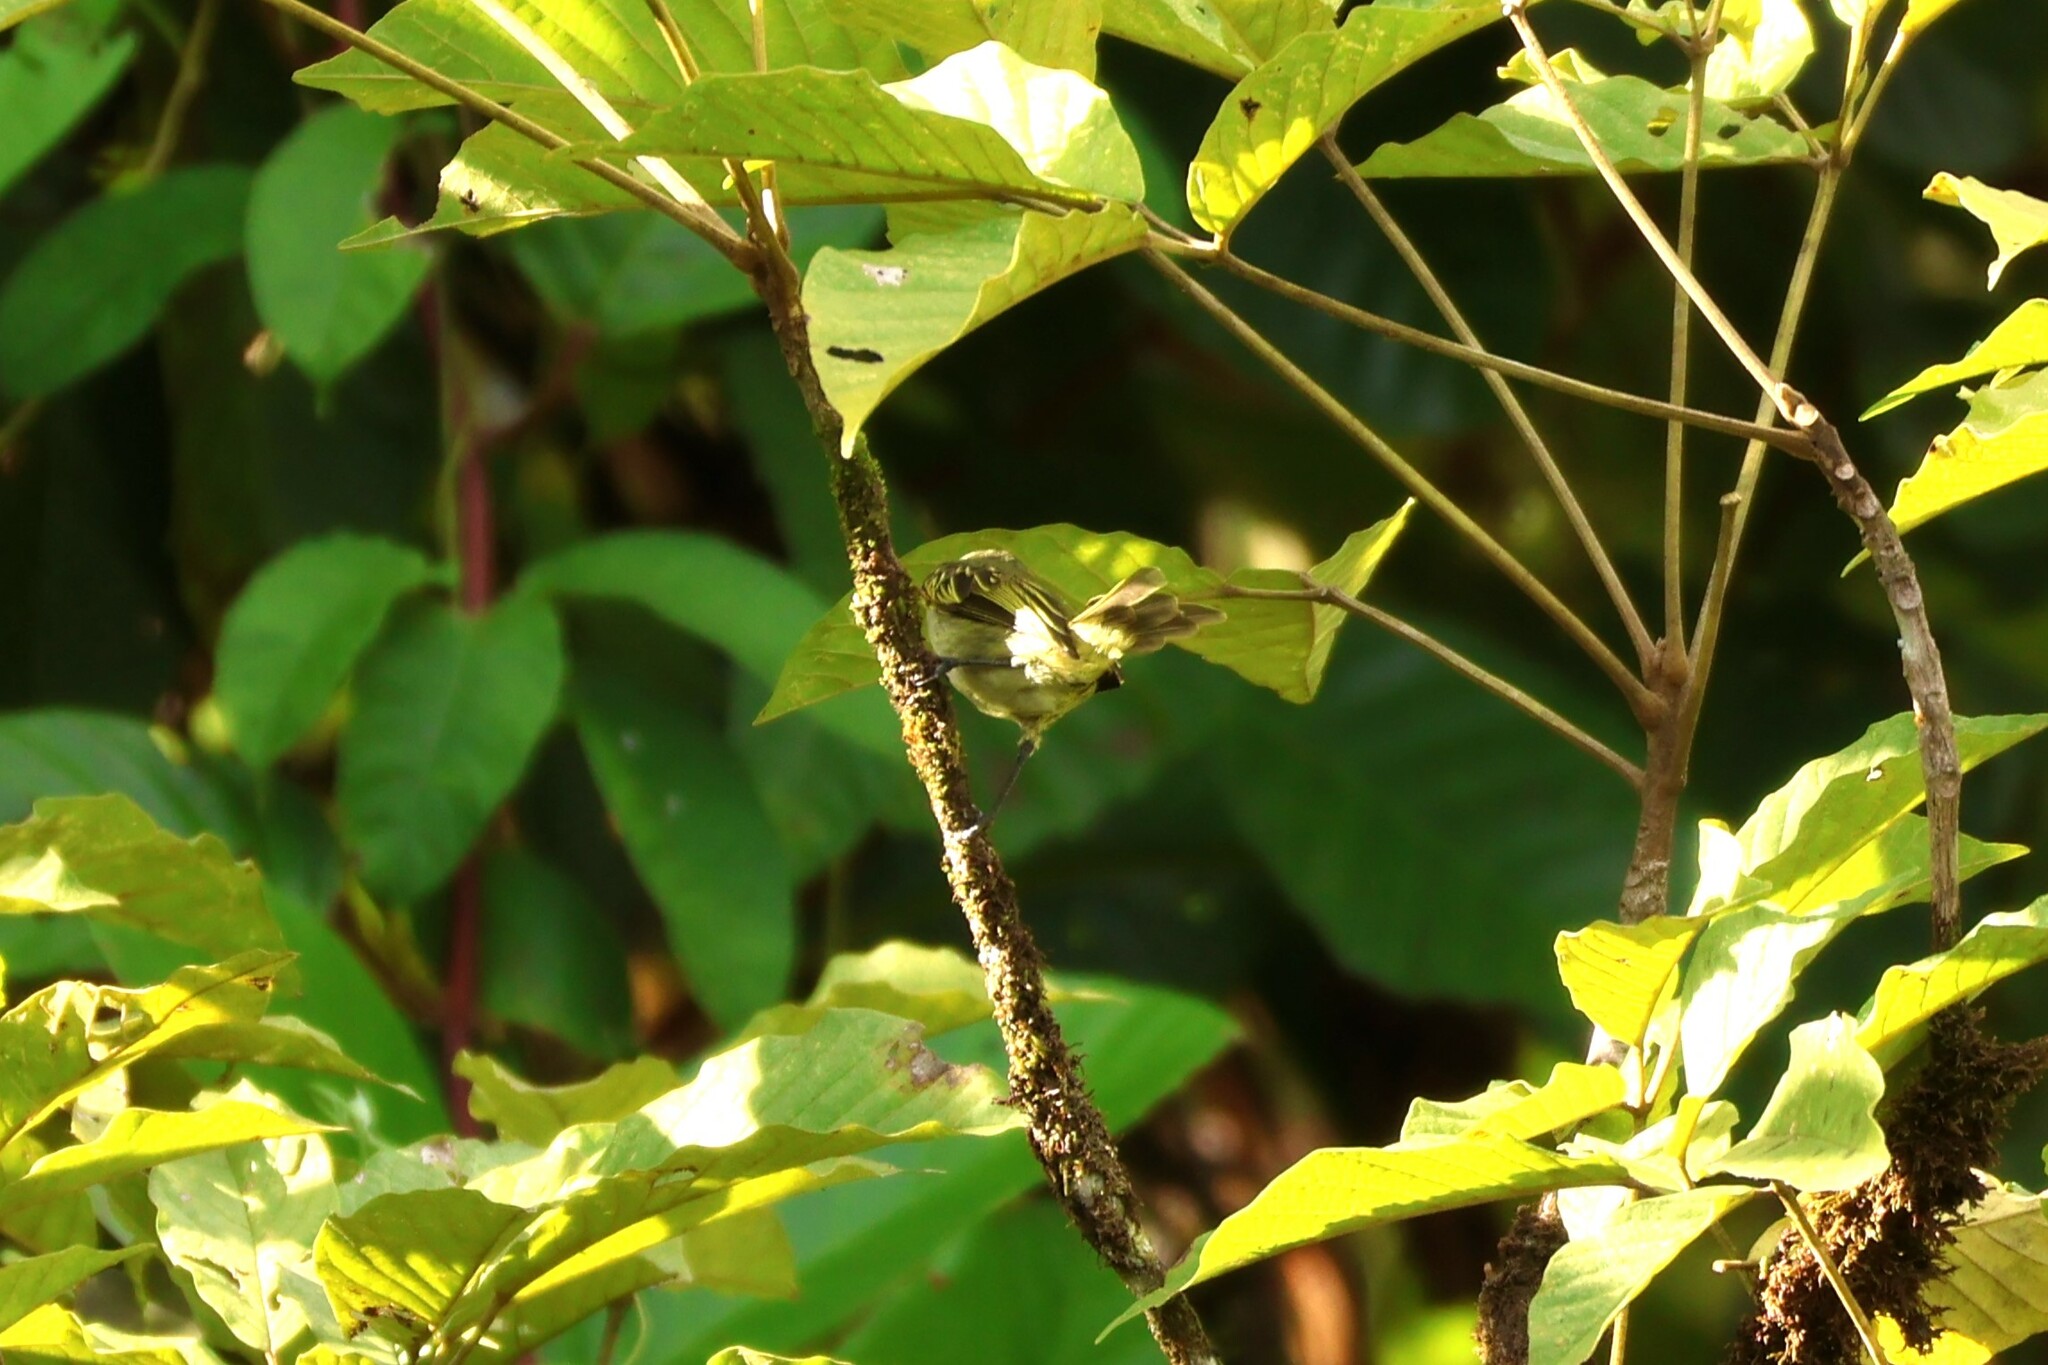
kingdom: Animalia
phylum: Chordata
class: Aves
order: Passeriformes
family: Tyrannidae
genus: Zimmerius
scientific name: Zimmerius vilissimus
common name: Paltry tyrannulet
